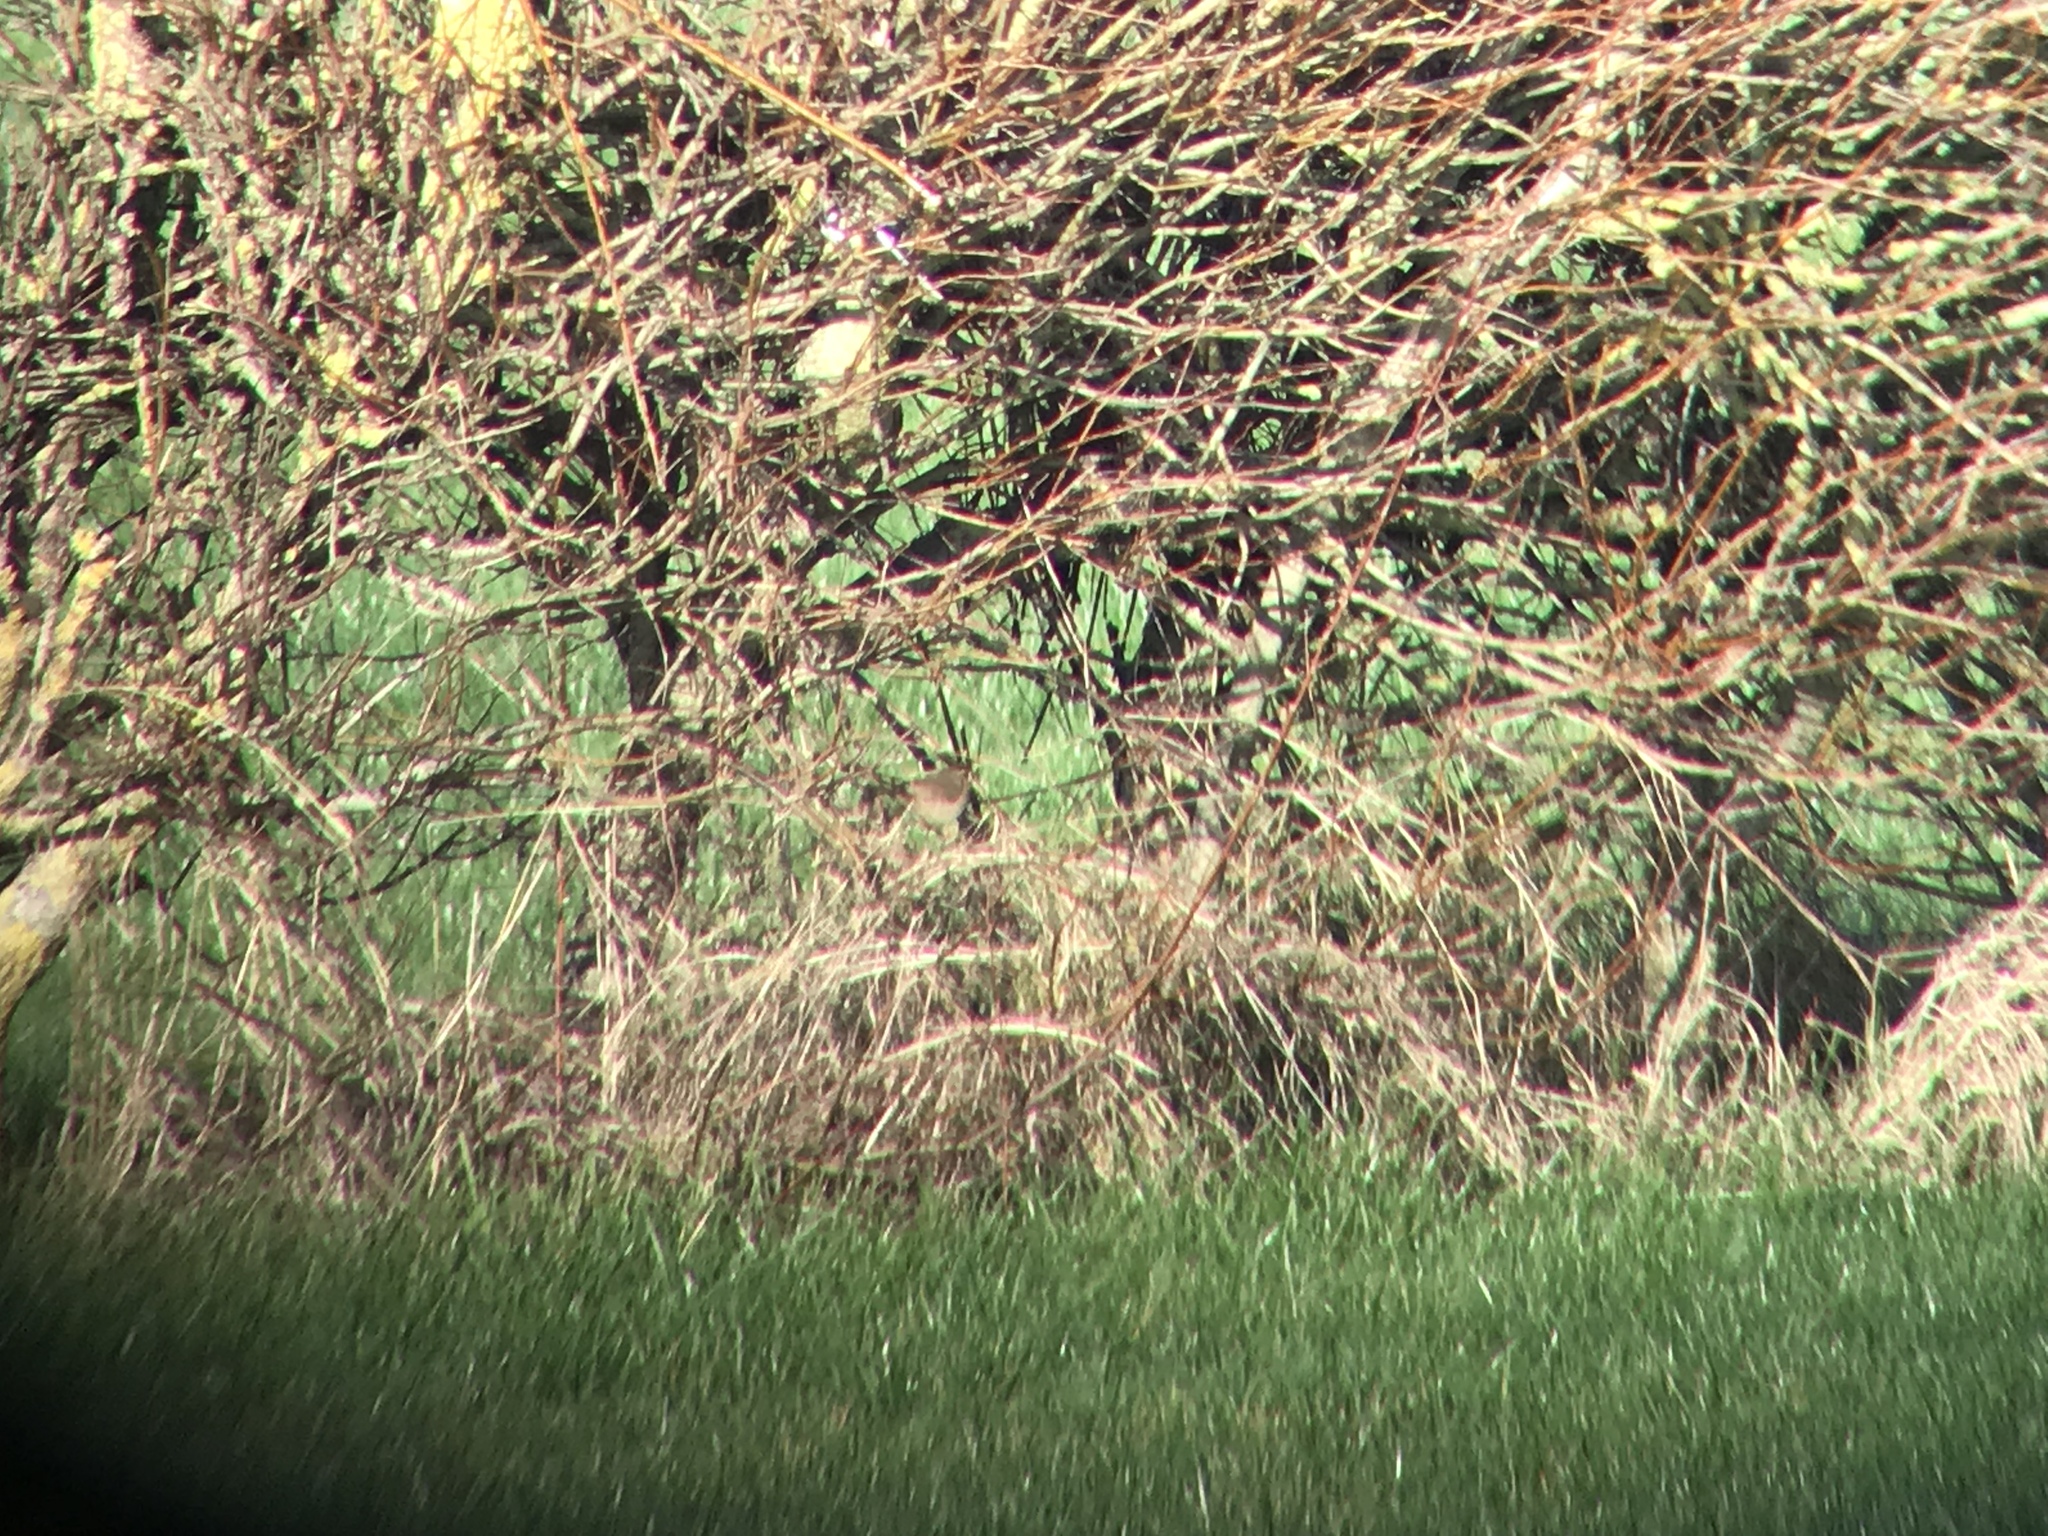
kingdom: Animalia
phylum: Chordata
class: Aves
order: Passeriformes
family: Phylloscopidae
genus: Phylloscopus
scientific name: Phylloscopus fuscatus
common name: Dusky warbler
